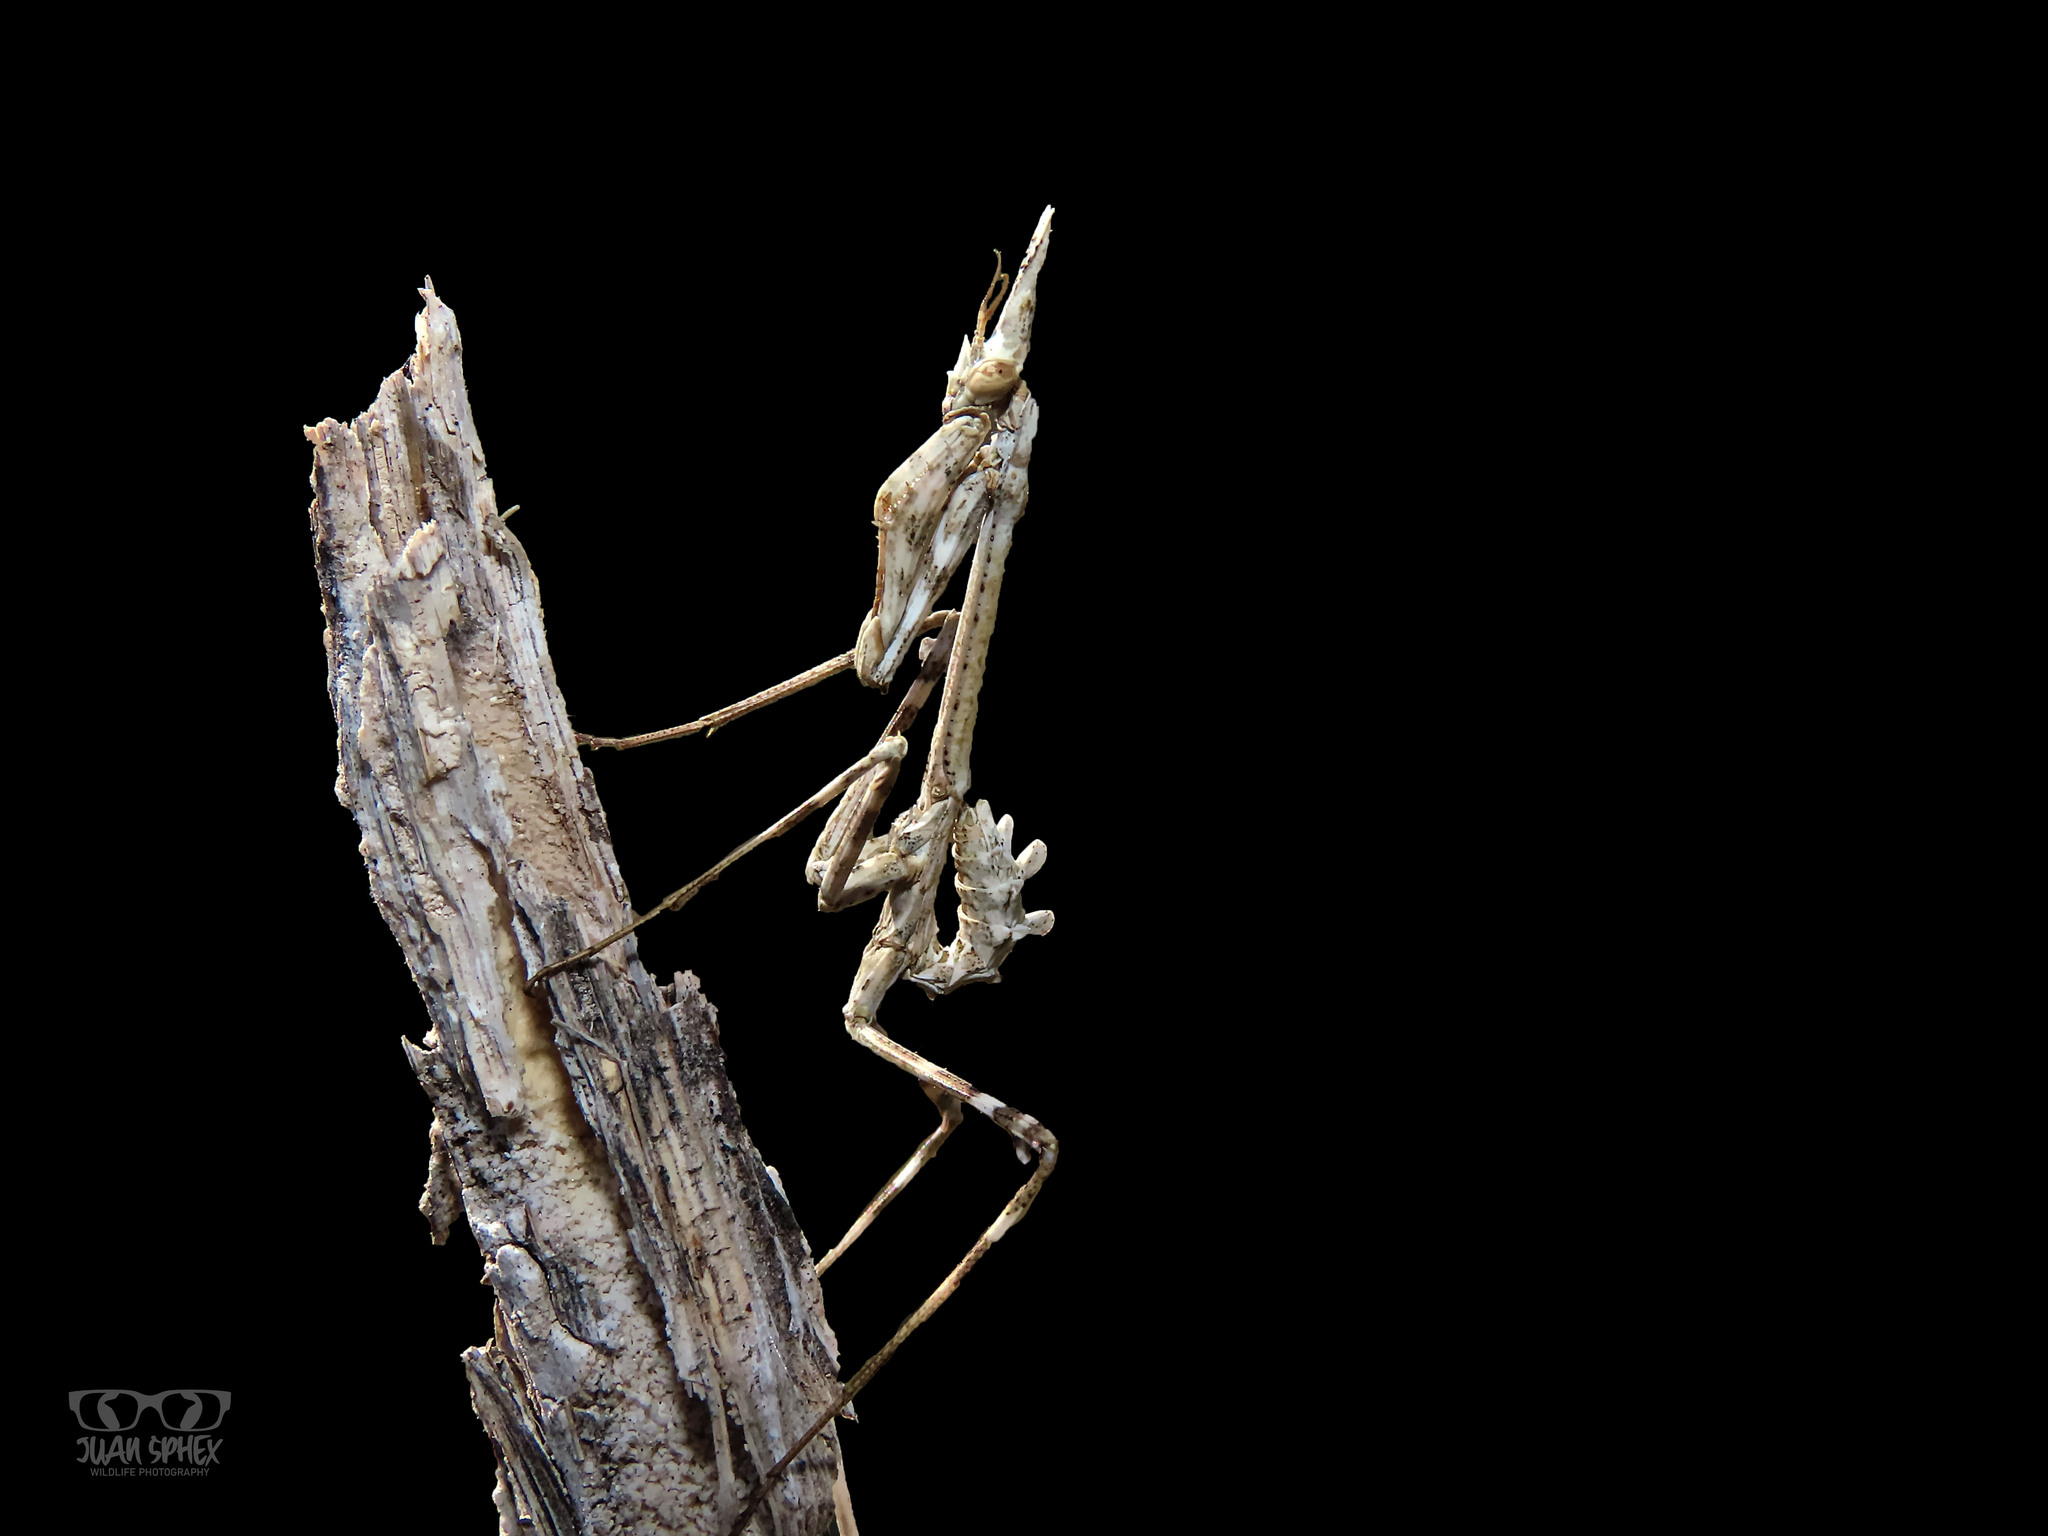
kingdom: Animalia
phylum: Arthropoda
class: Insecta
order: Mantodea
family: Empusidae
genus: Empusa
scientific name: Empusa pennata
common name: Conehead mantis
